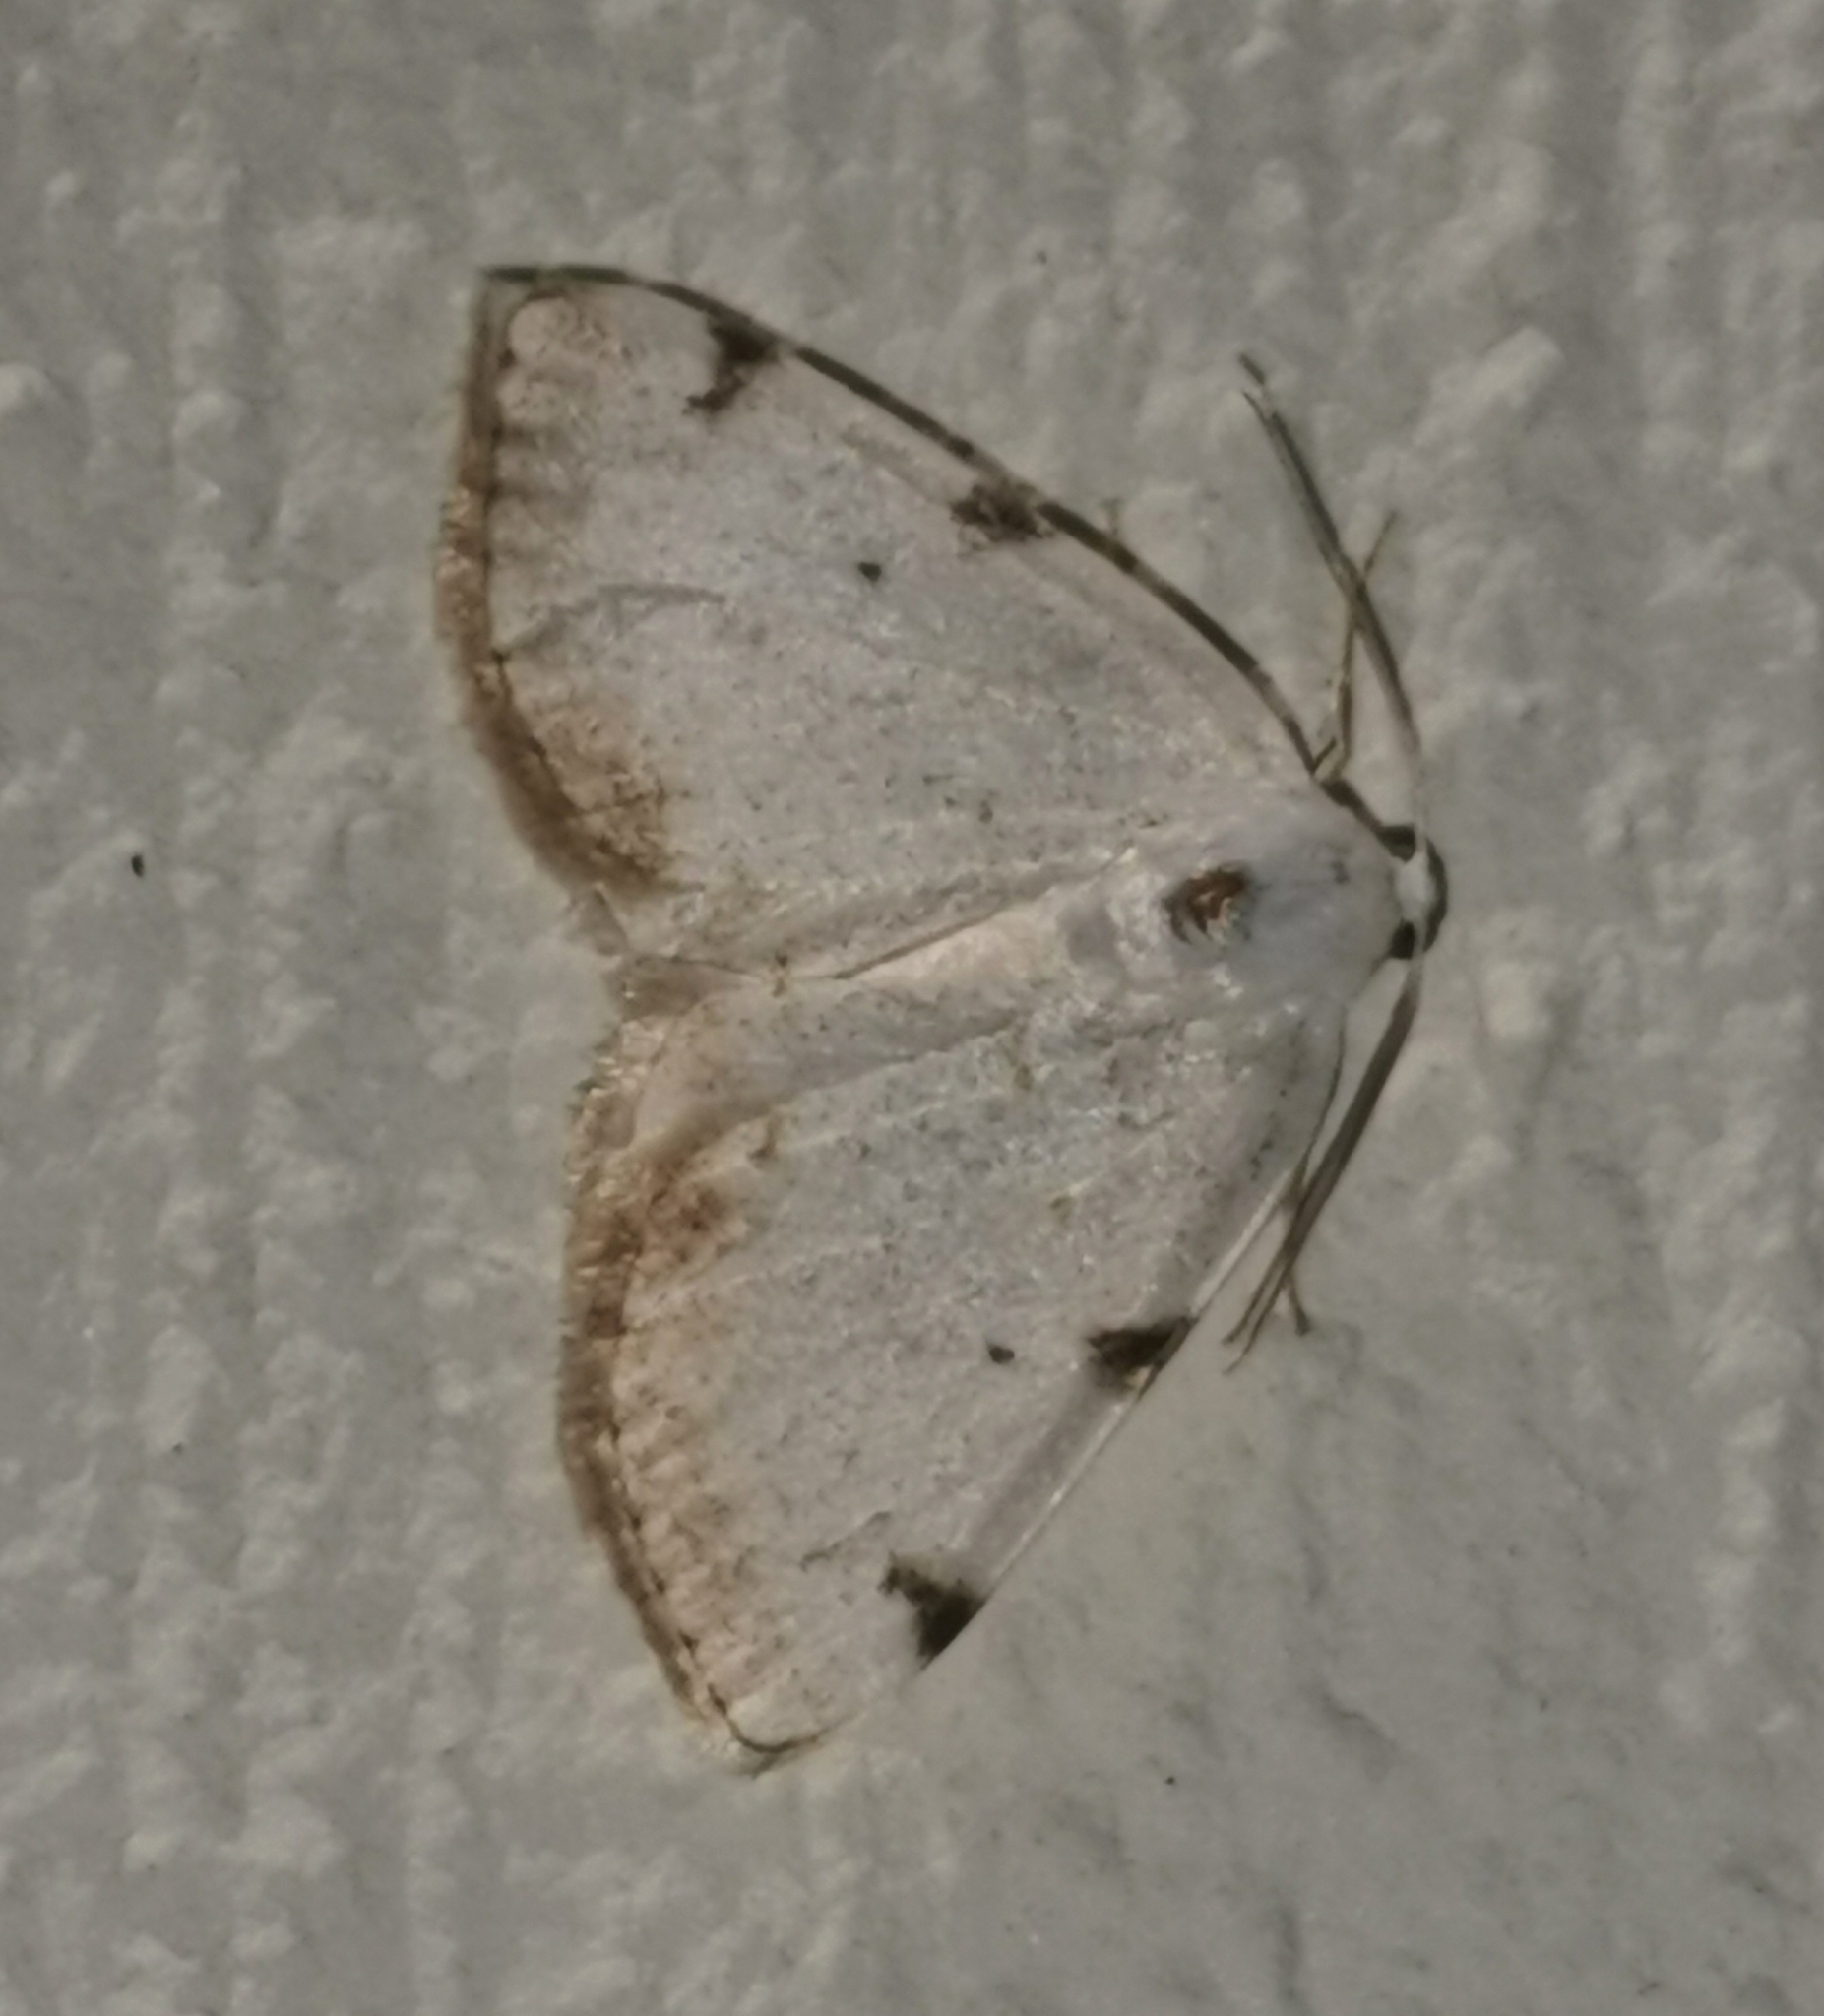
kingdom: Animalia
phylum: Arthropoda
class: Insecta
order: Lepidoptera
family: Geometridae
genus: Lomographa
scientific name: Lomographa bimaculata
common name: White-pinion spotted
